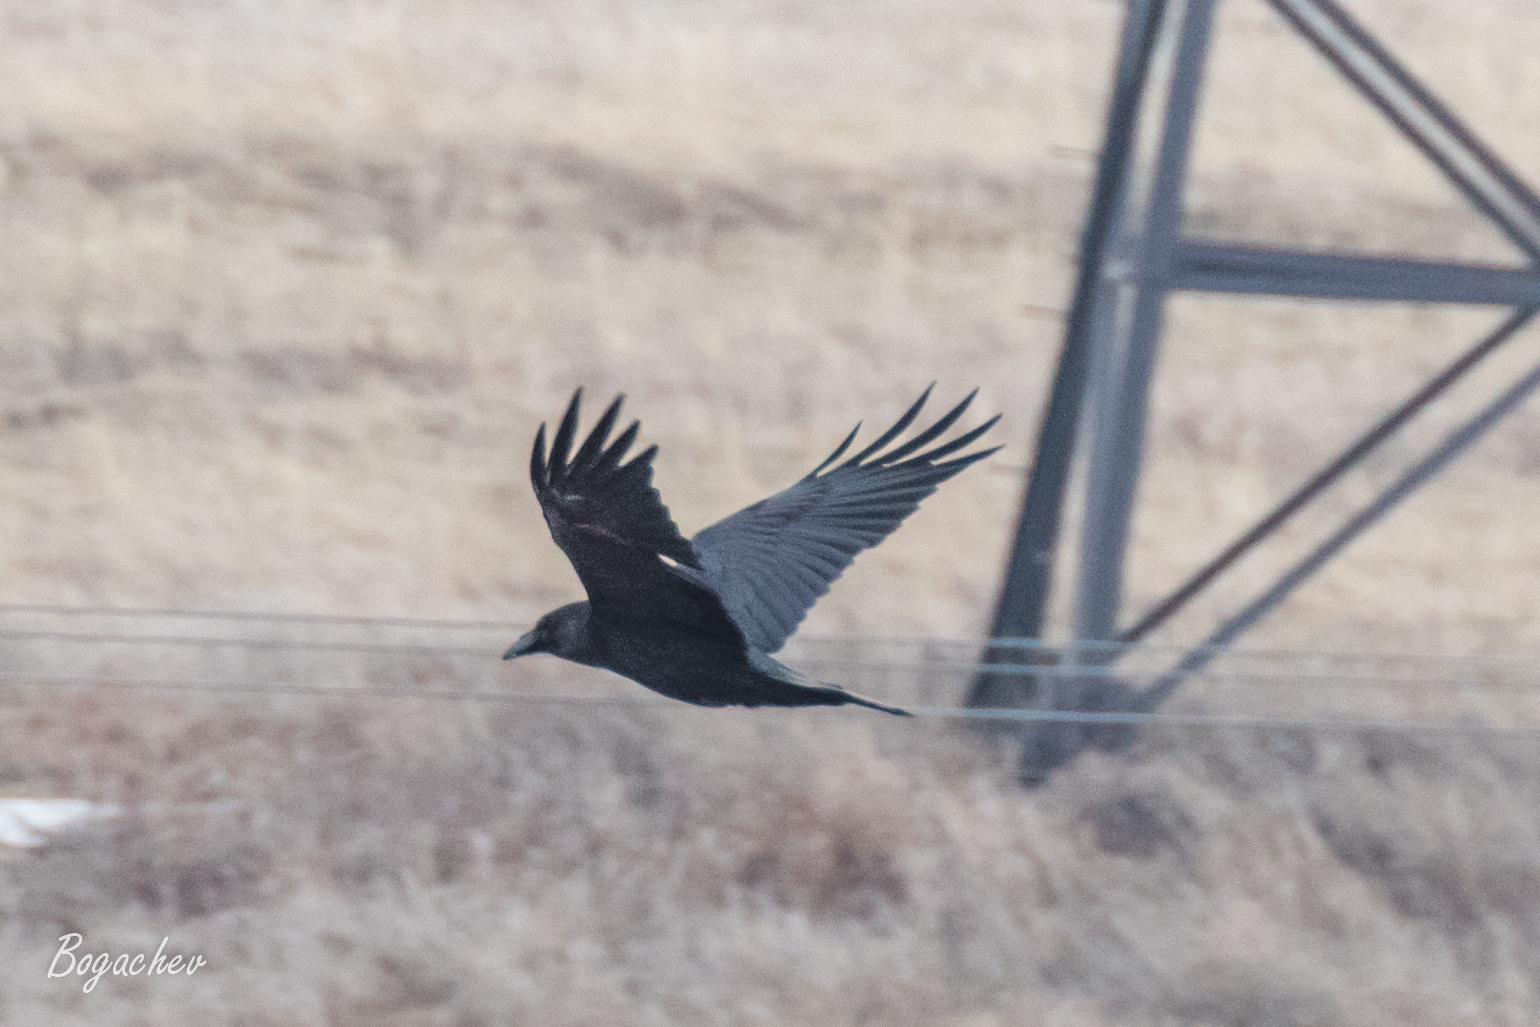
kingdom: Animalia
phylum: Chordata
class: Aves
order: Passeriformes
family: Corvidae
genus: Corvus
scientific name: Corvus corax
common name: Common raven
